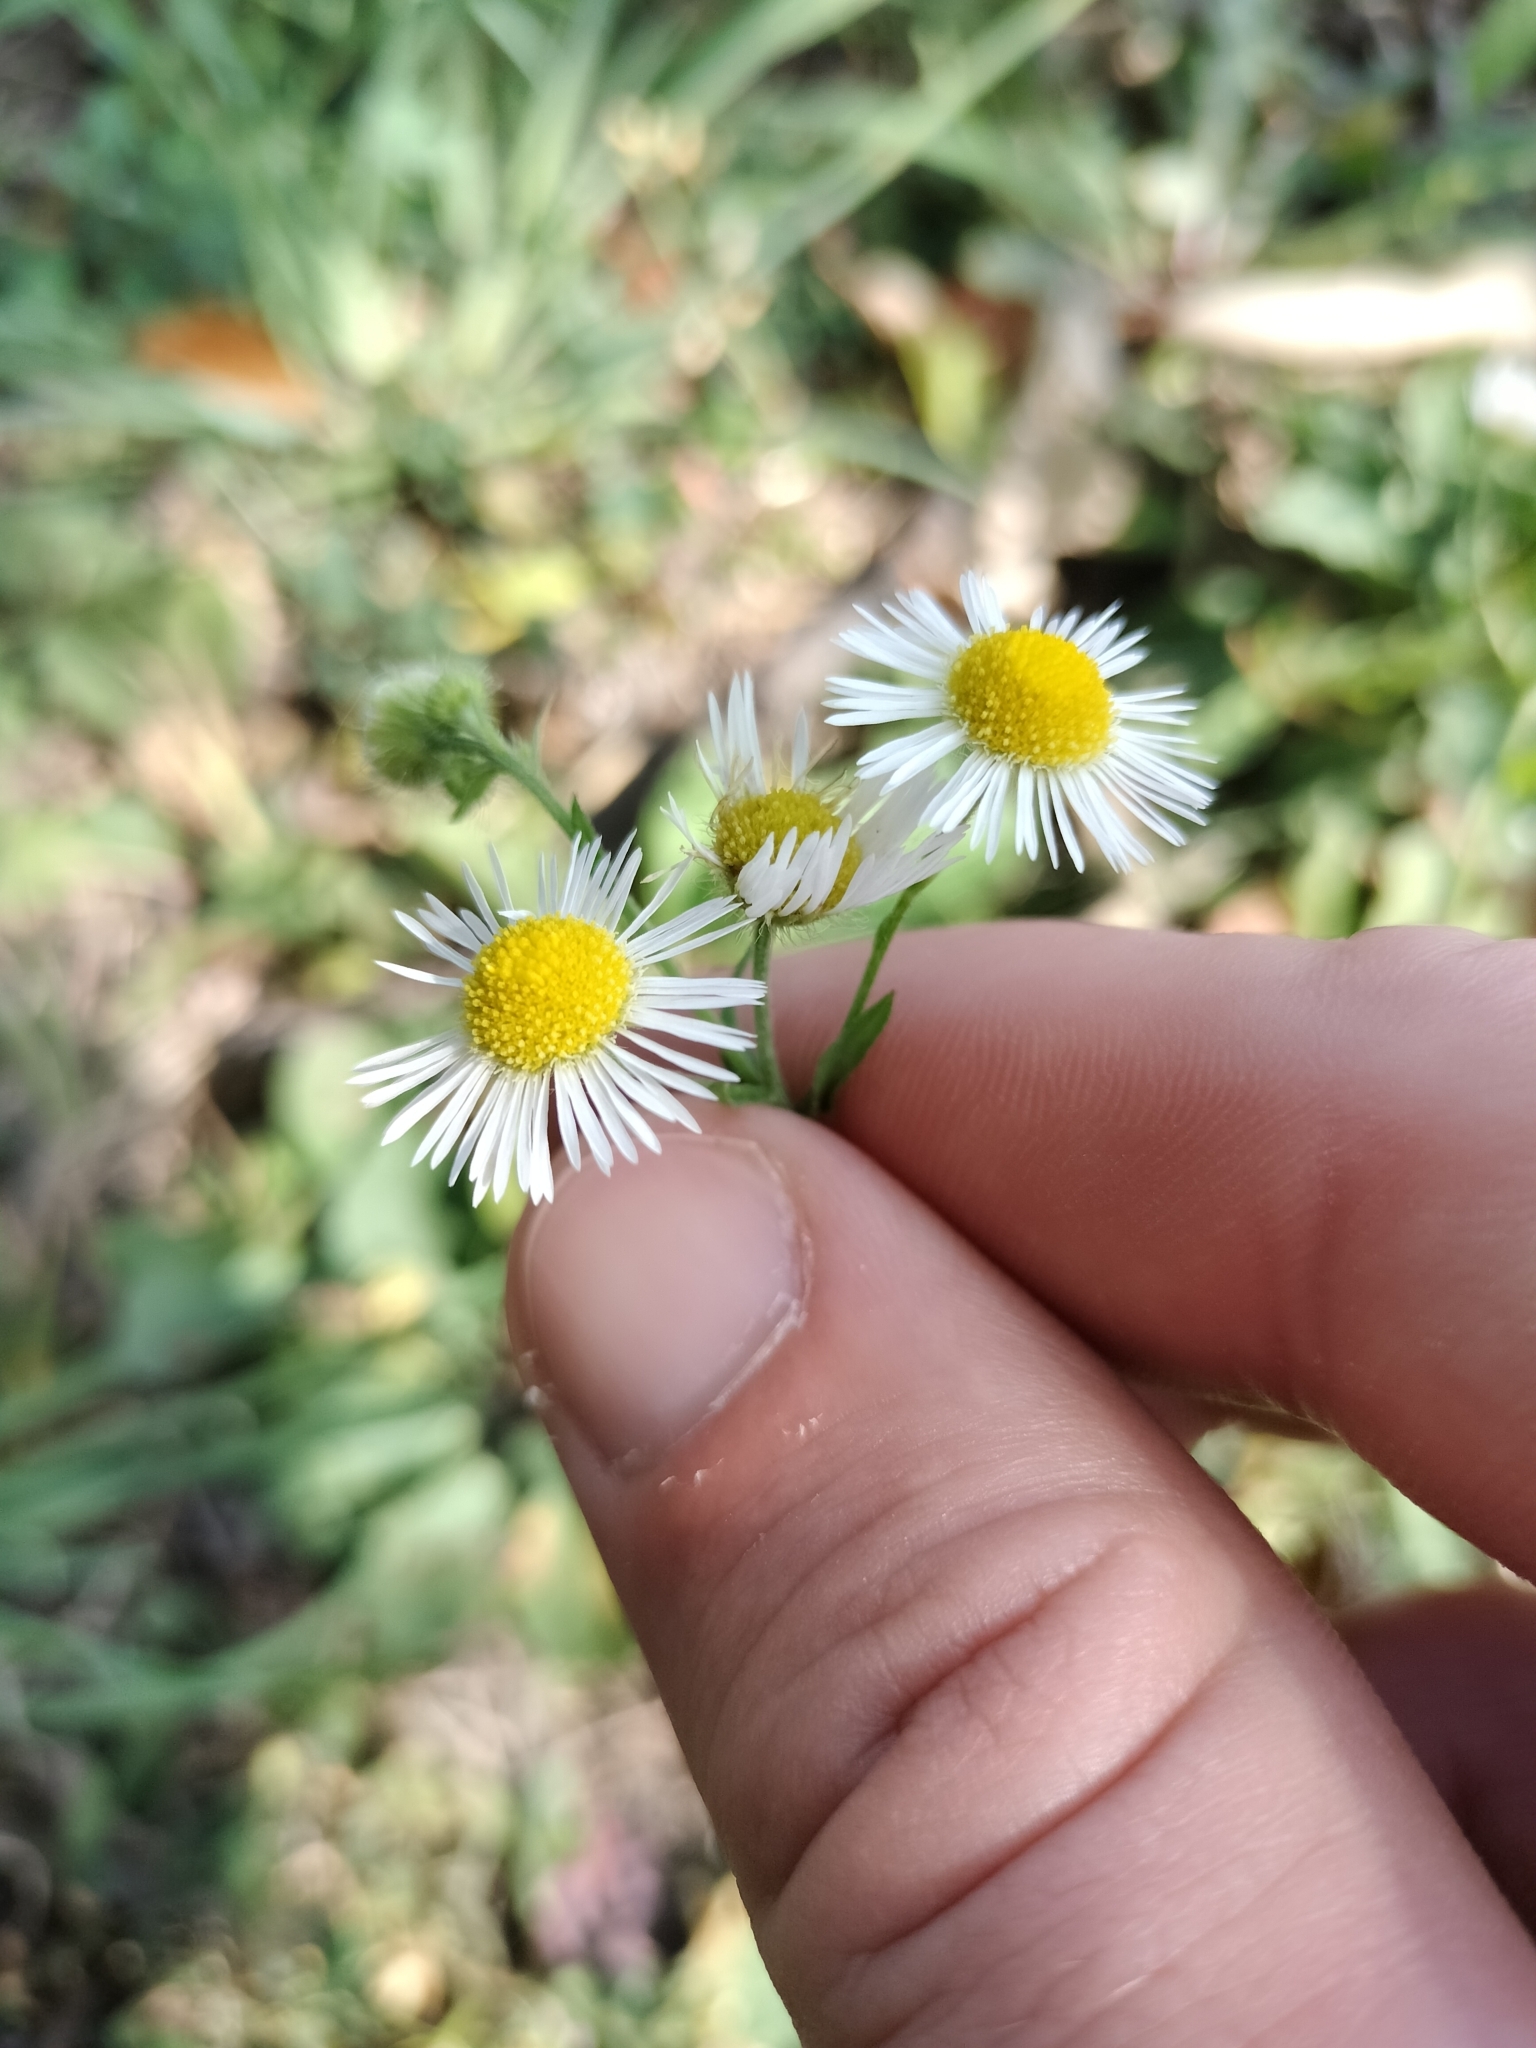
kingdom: Plantae
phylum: Tracheophyta
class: Magnoliopsida
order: Asterales
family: Asteraceae
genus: Erigeron
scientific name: Erigeron strigosus
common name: Common eastern fleabane
